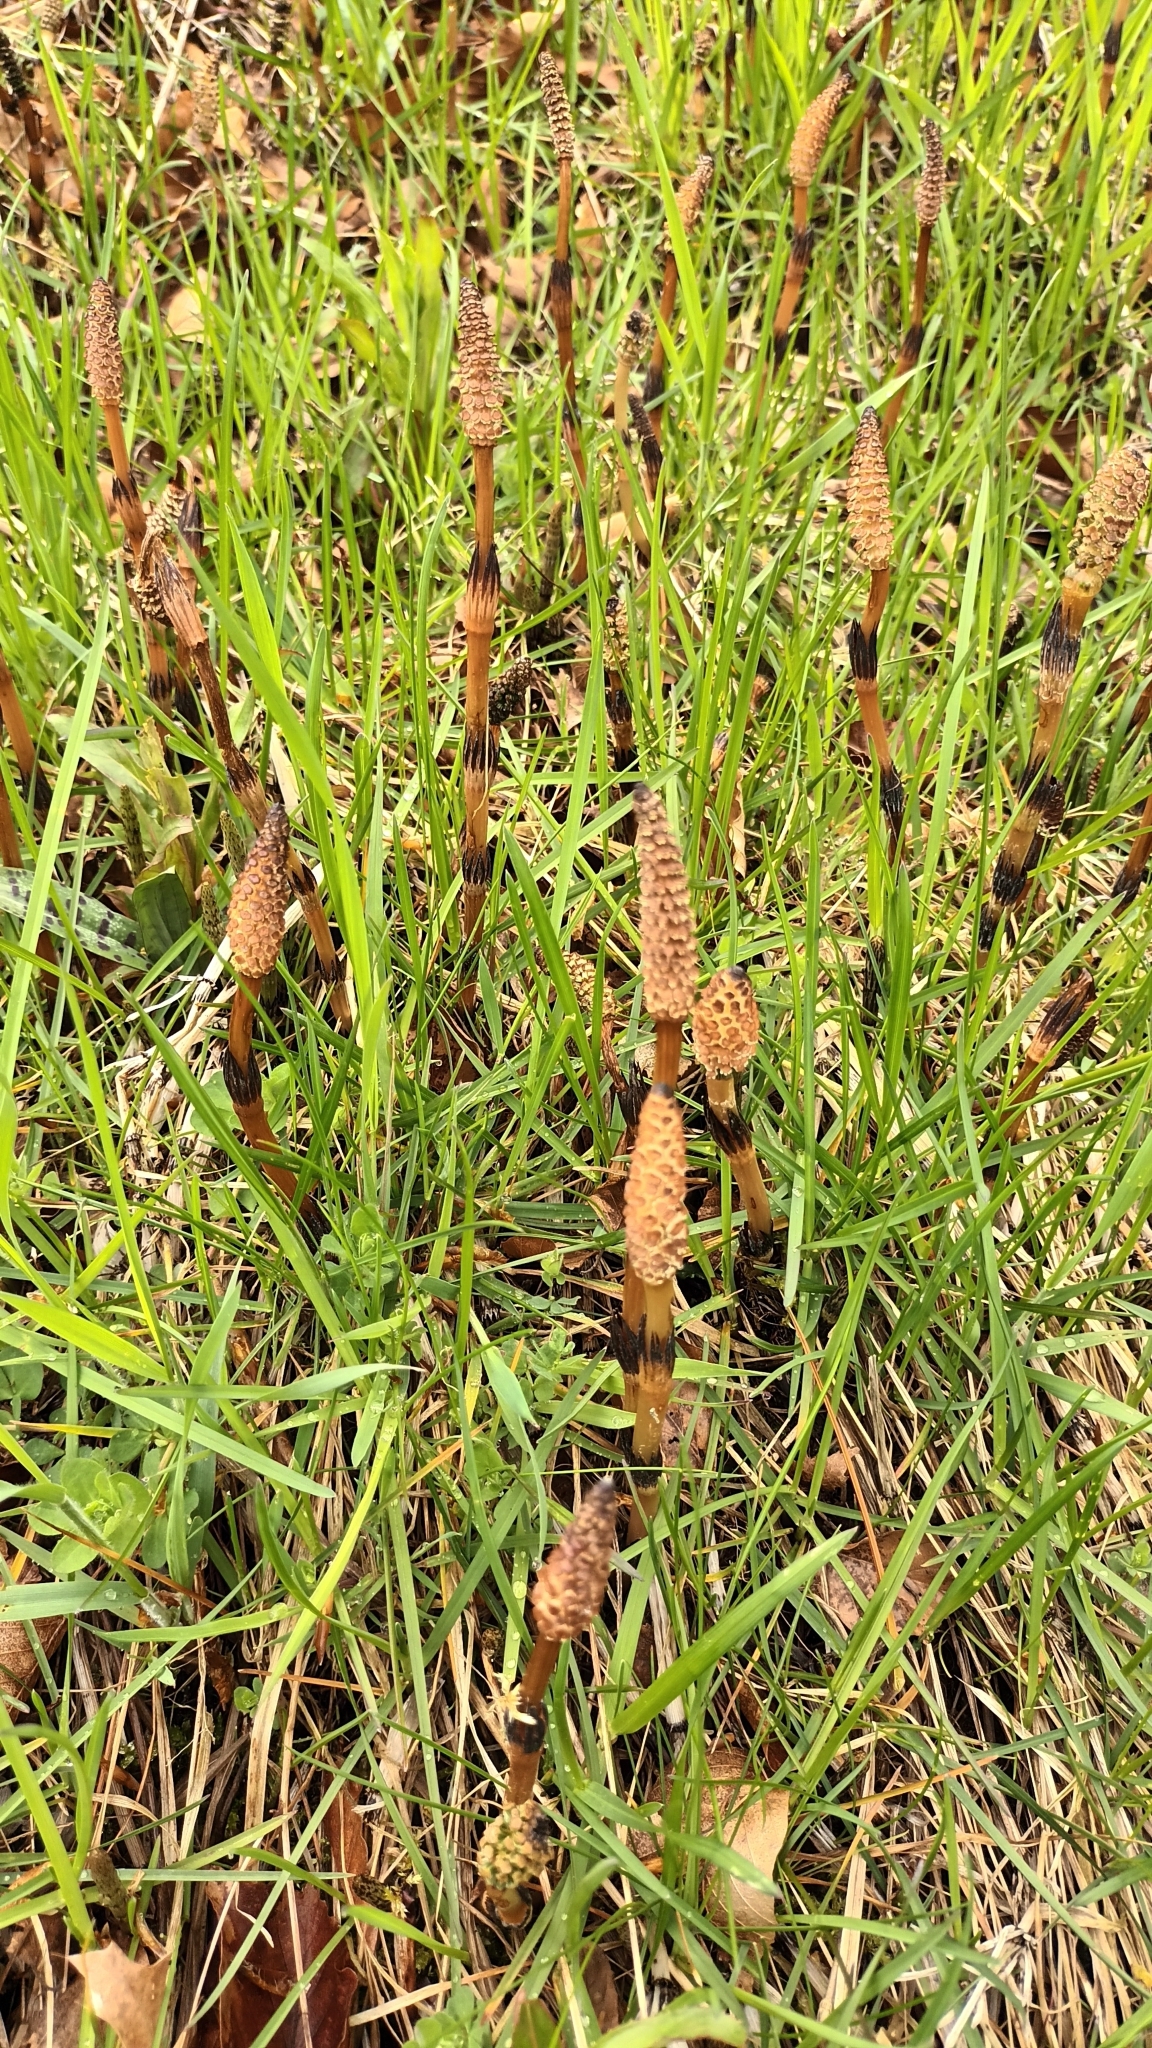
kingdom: Plantae
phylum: Tracheophyta
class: Polypodiopsida
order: Equisetales
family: Equisetaceae
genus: Equisetum
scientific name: Equisetum arvense
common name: Field horsetail
